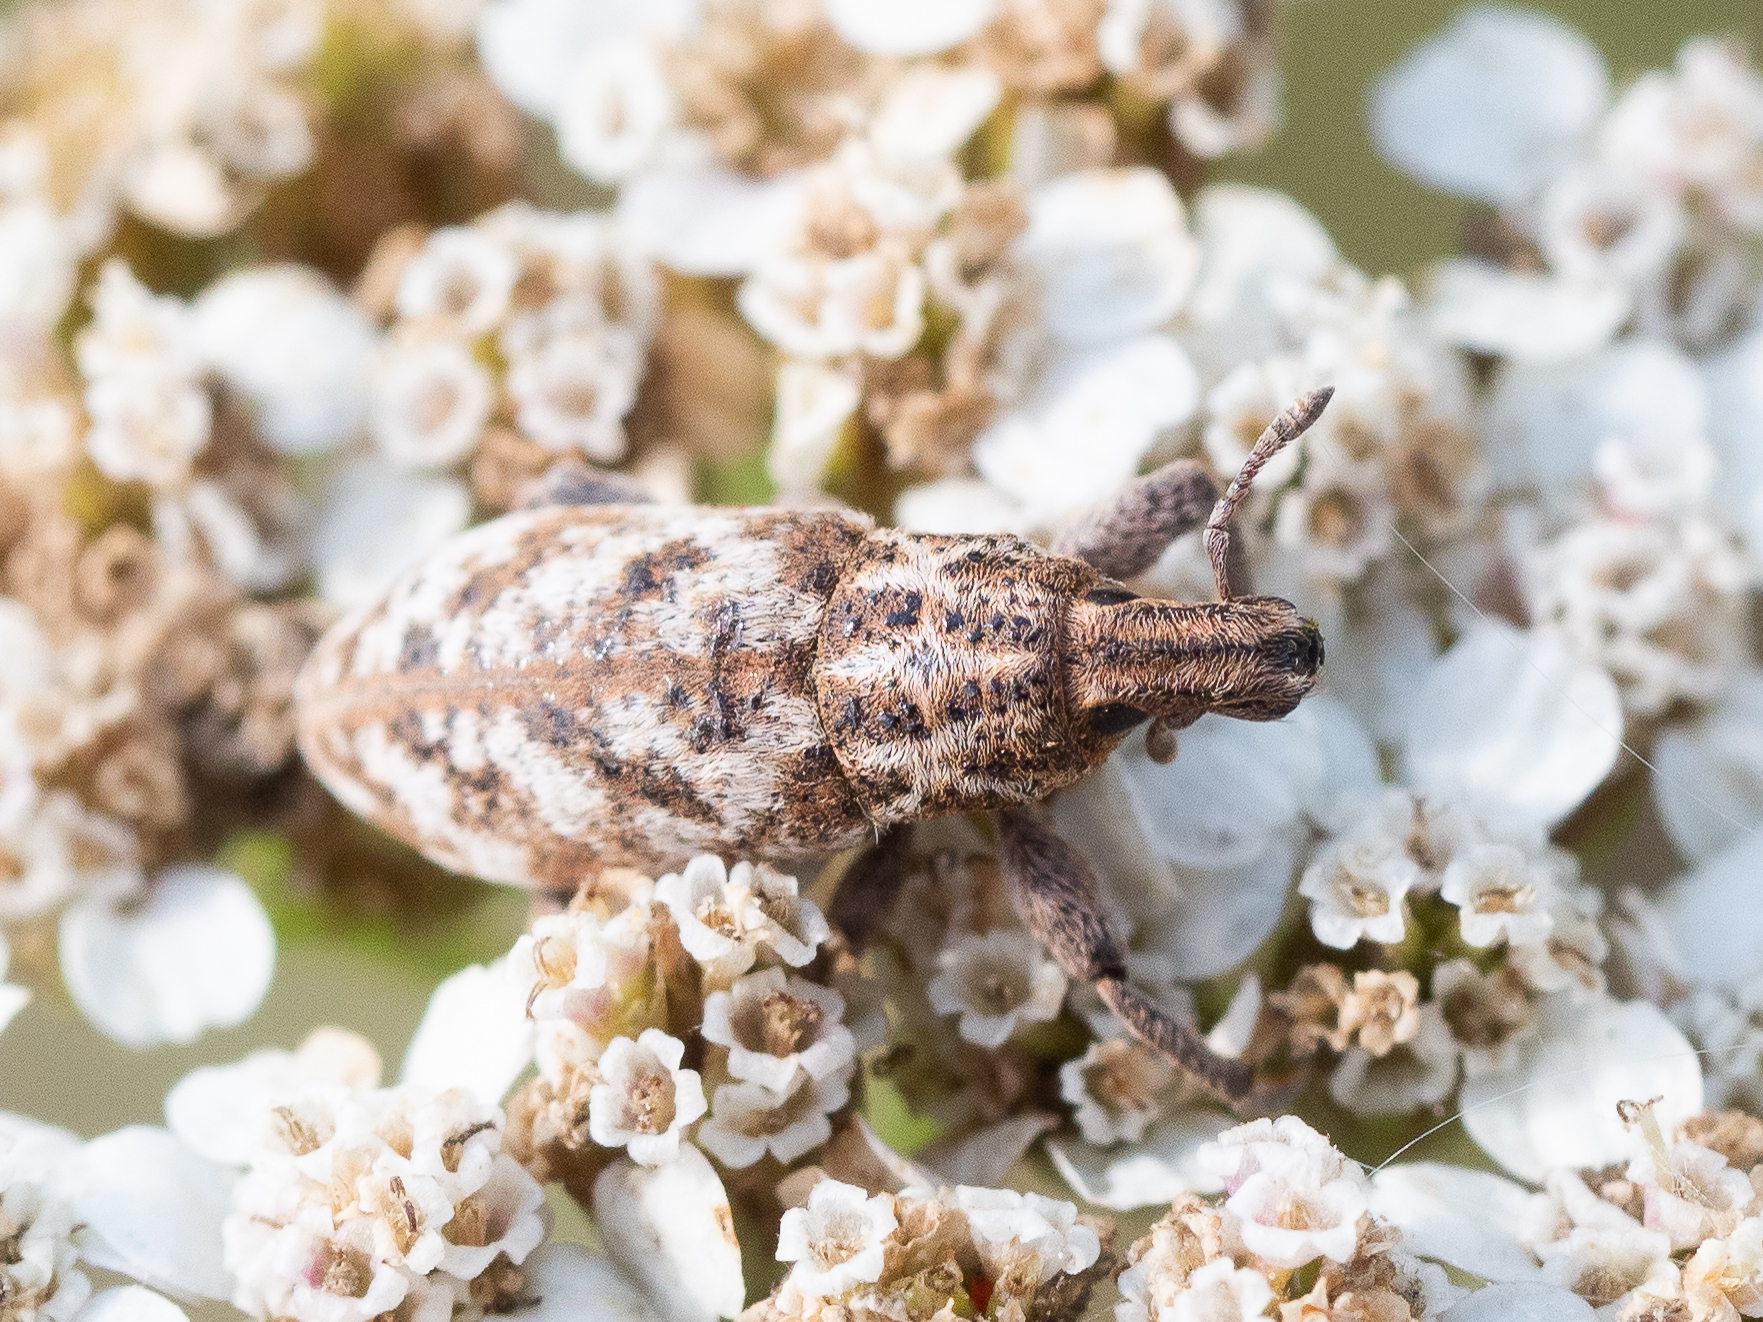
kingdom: Animalia
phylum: Arthropoda
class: Insecta
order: Coleoptera
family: Curculionidae
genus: Cyphocleonus
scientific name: Cyphocleonus dealbatus
